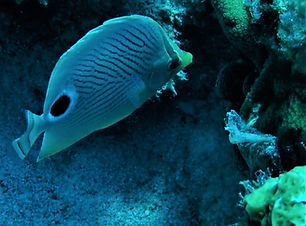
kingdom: Animalia
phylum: Chordata
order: Perciformes
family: Chaetodontidae
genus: Chaetodon
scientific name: Chaetodon capistratus
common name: Kete
